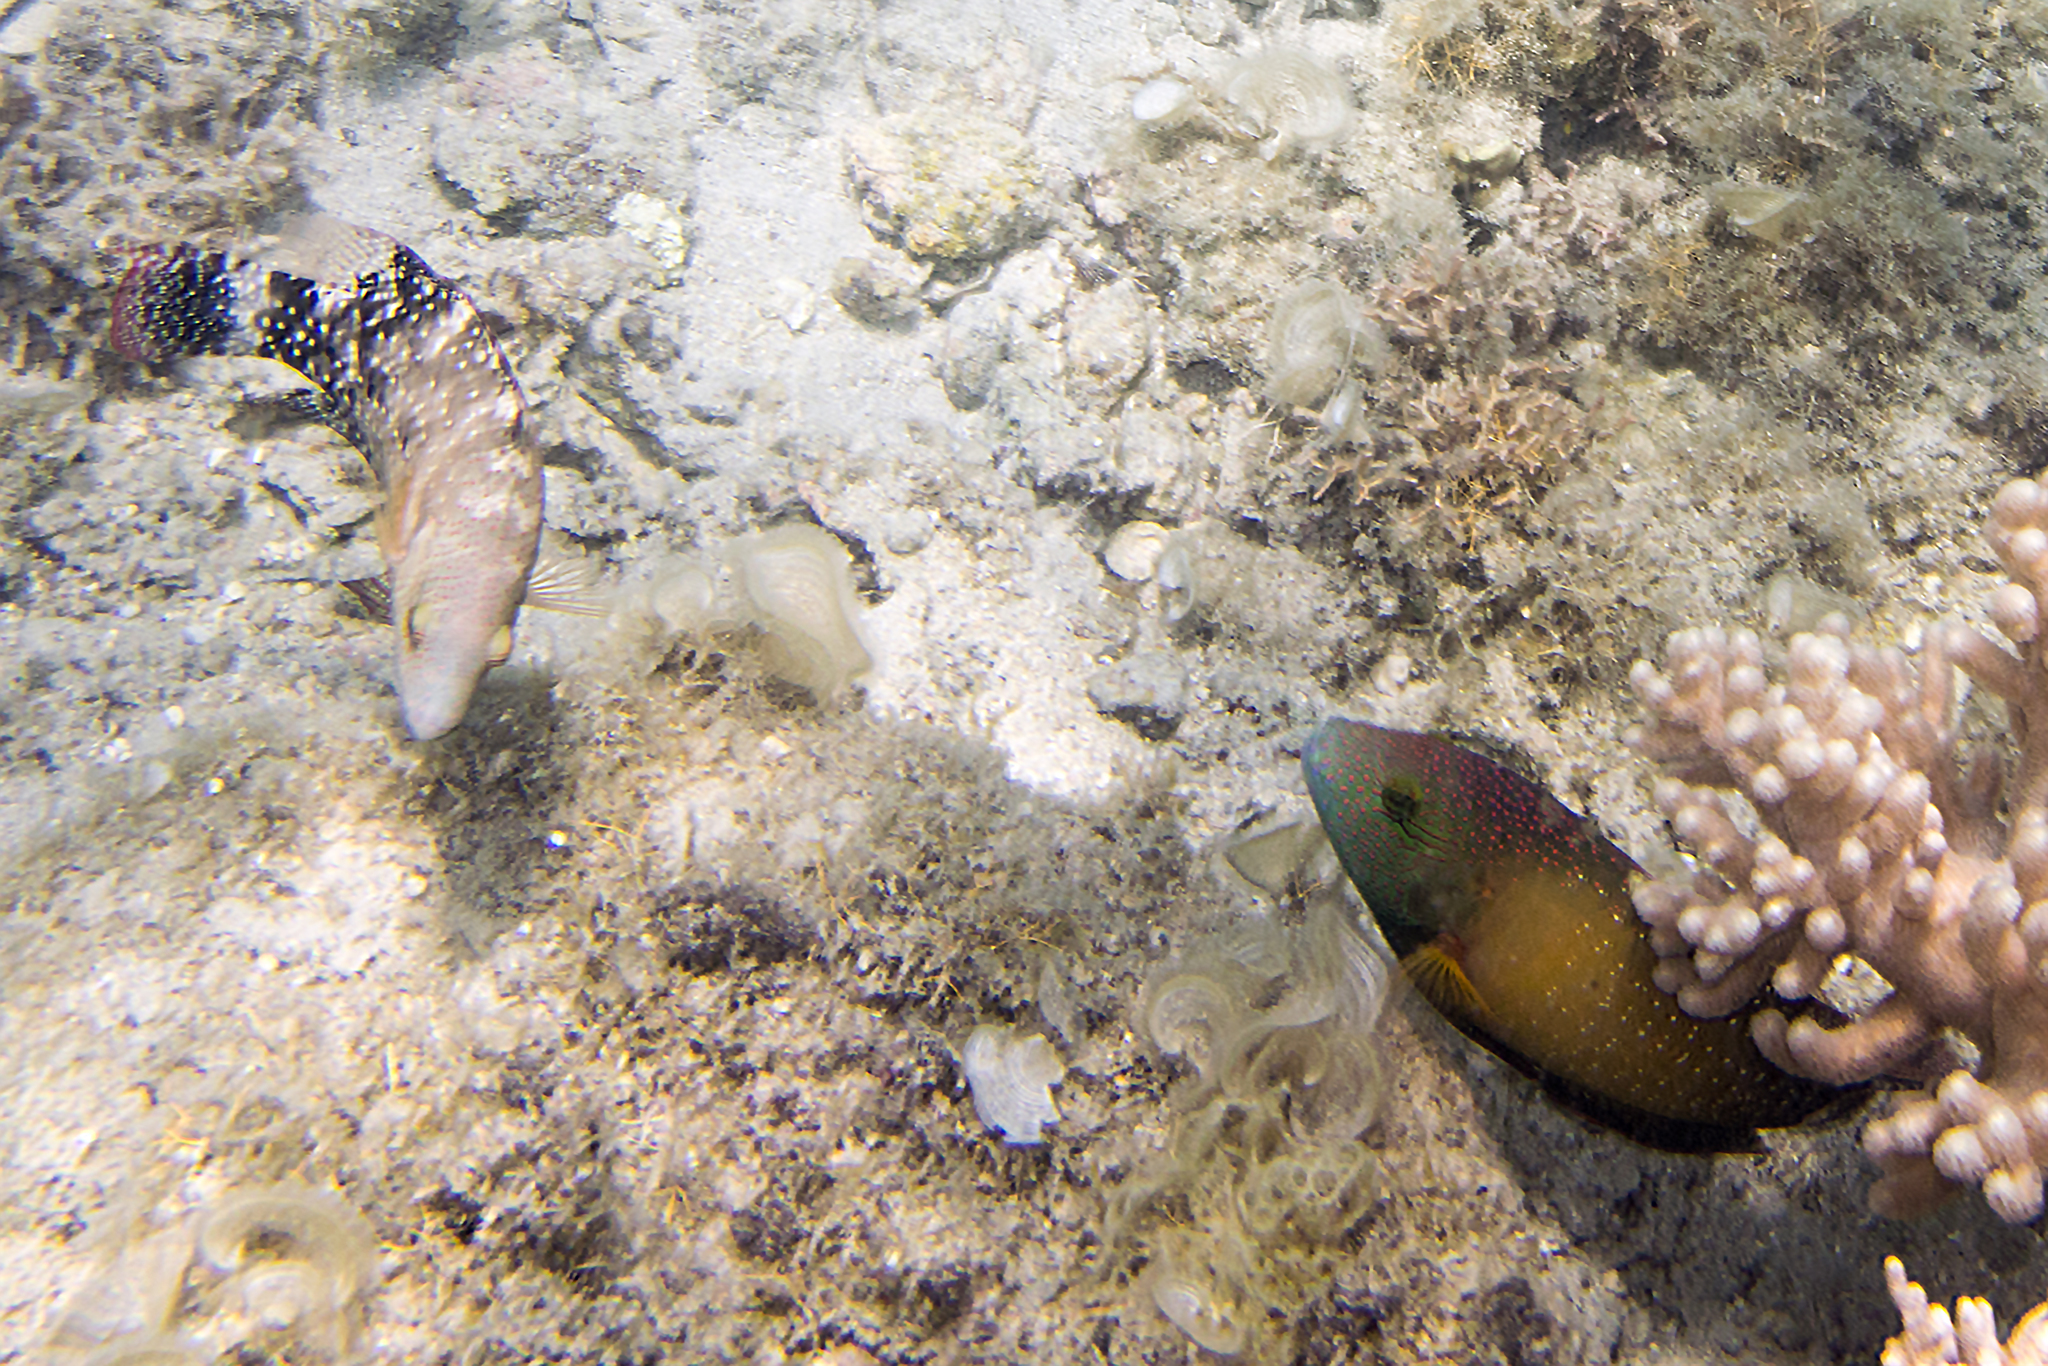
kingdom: Animalia
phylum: Chordata
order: Perciformes
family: Labridae
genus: Cheilinus
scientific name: Cheilinus chlorourus
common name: Floral wrasse
